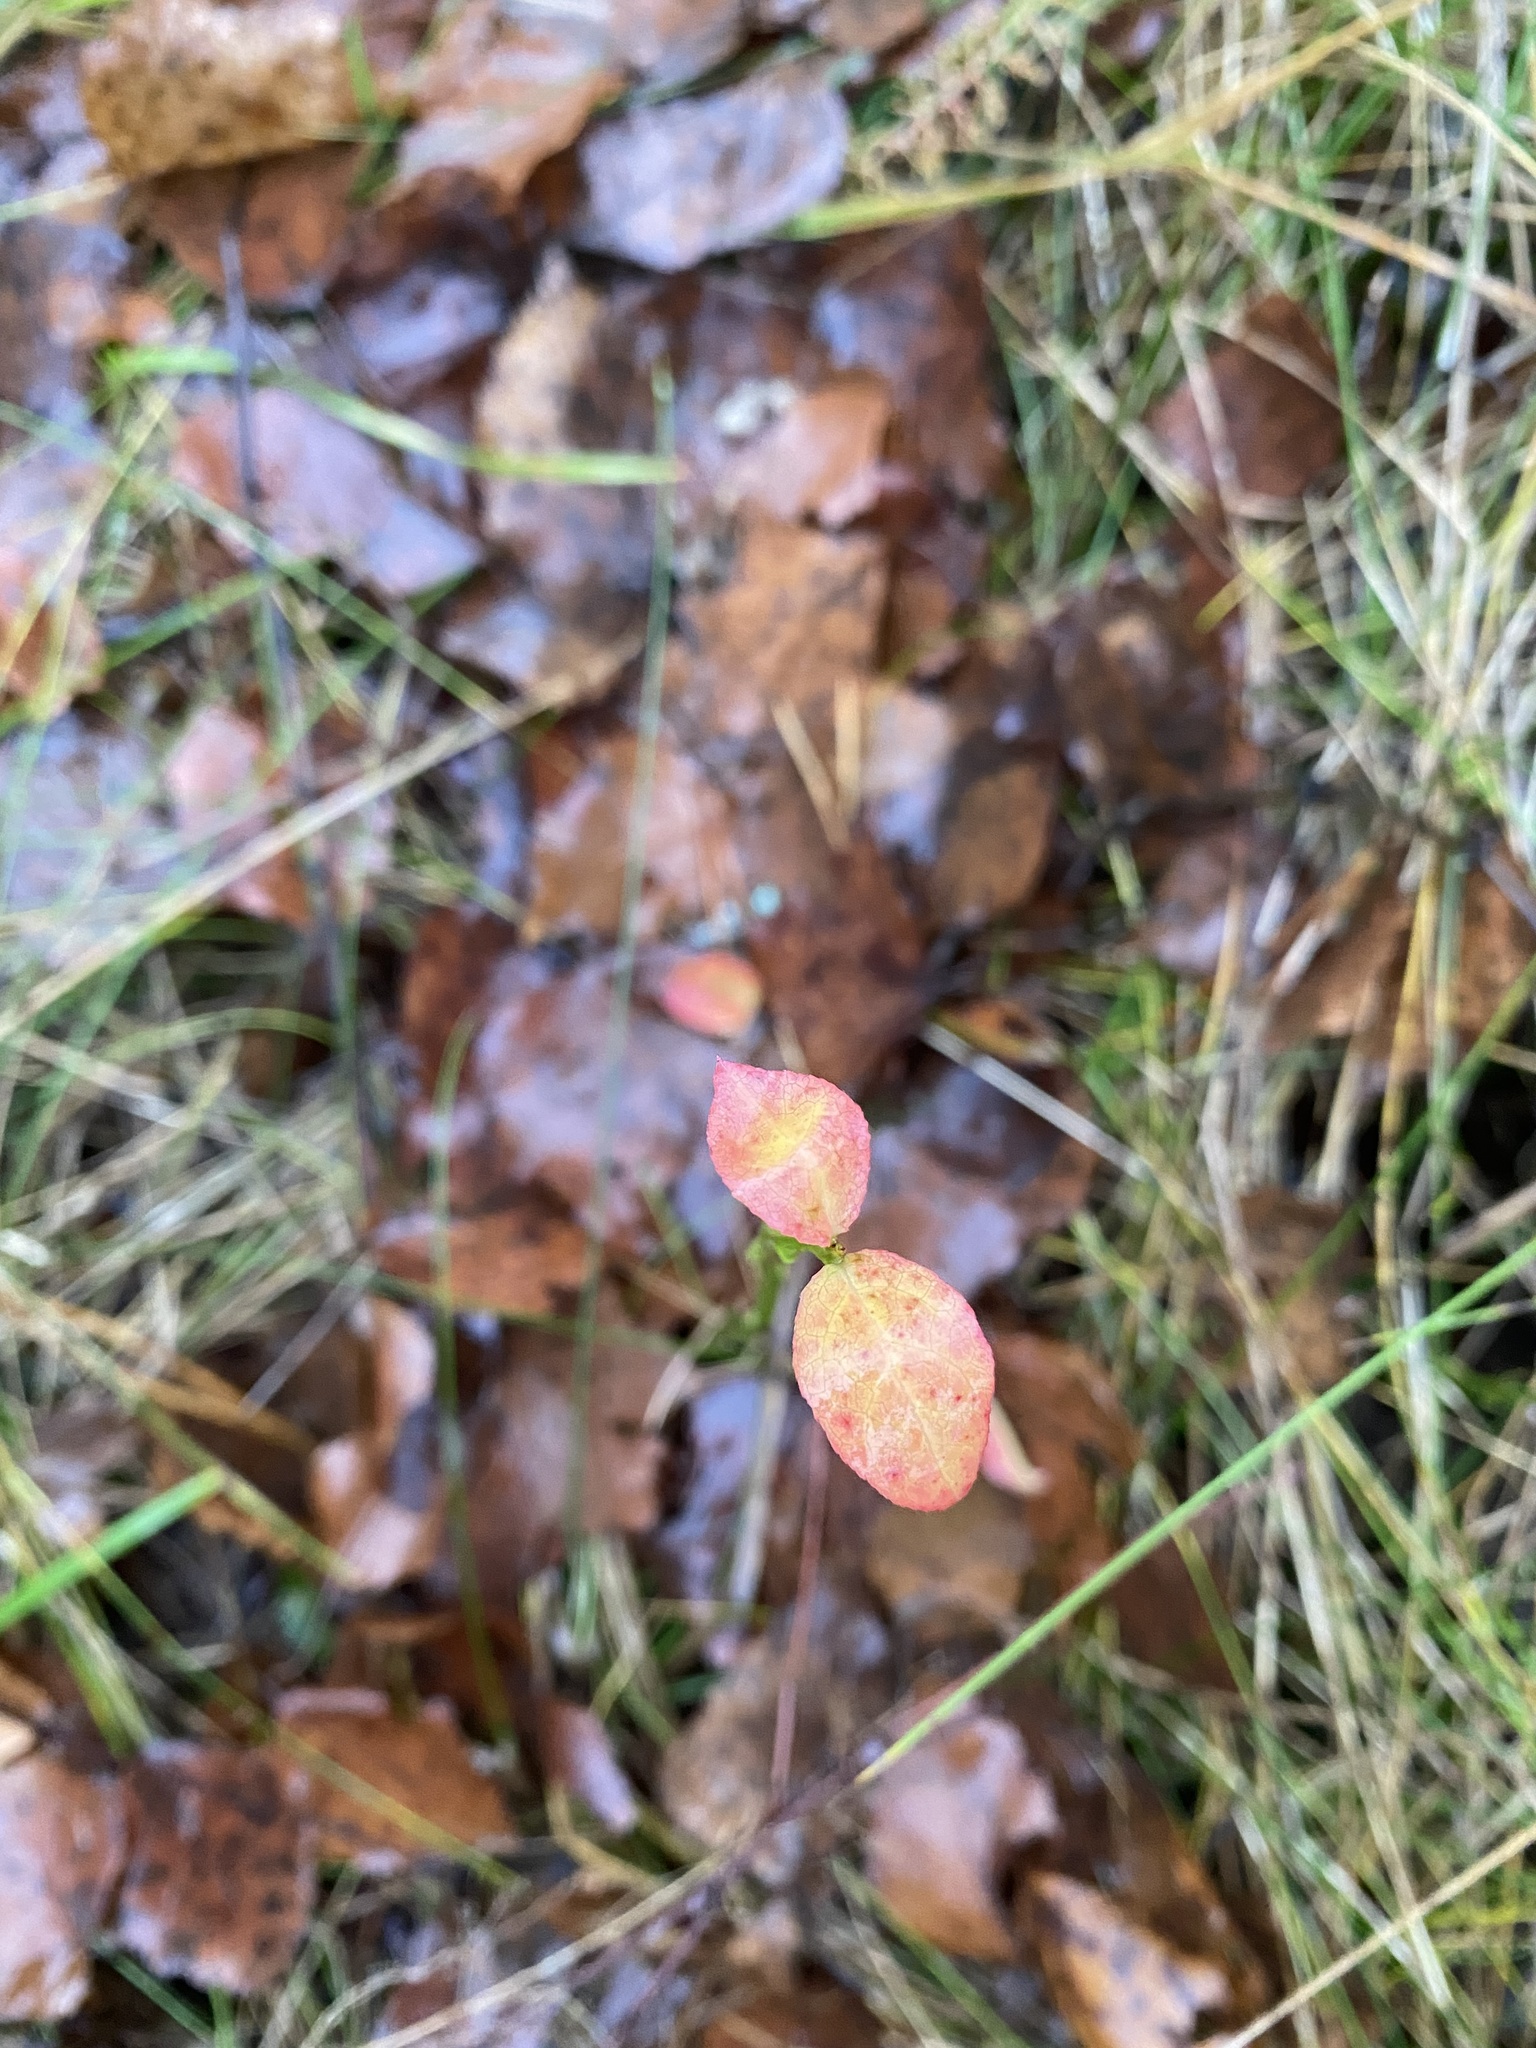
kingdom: Plantae
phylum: Tracheophyta
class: Magnoliopsida
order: Ericales
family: Ericaceae
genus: Vaccinium
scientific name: Vaccinium myrtillus
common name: Bilberry
